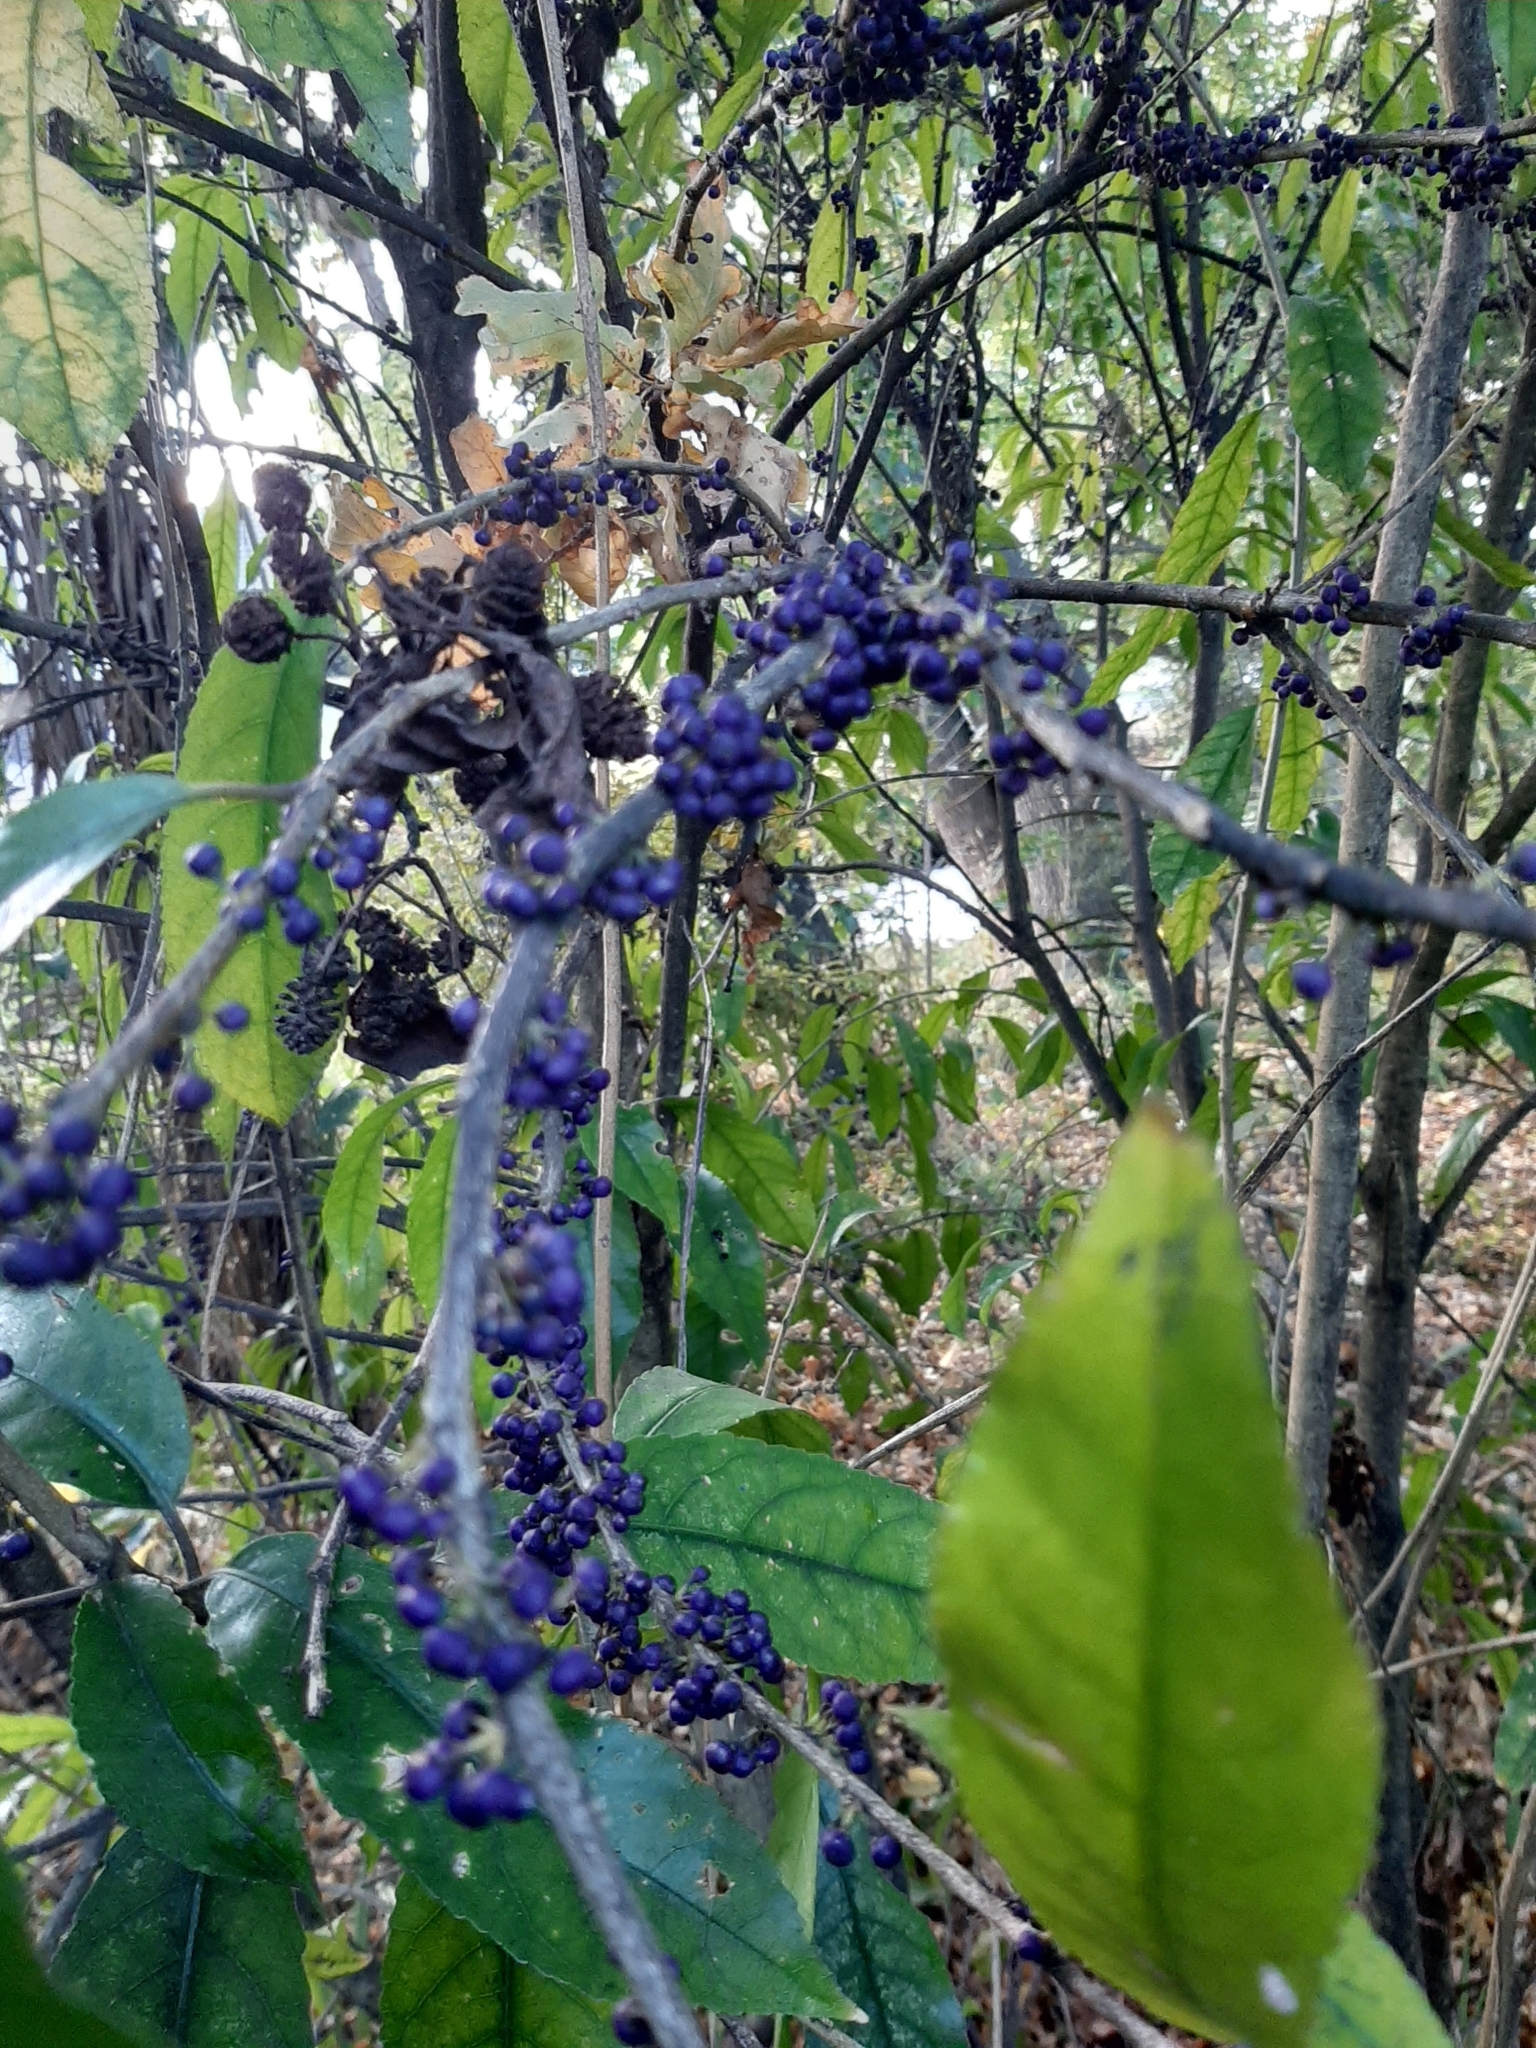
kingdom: Plantae
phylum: Tracheophyta
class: Magnoliopsida
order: Malpighiales
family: Violaceae
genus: Melicytus
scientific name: Melicytus ramiflorus
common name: Mahoe
